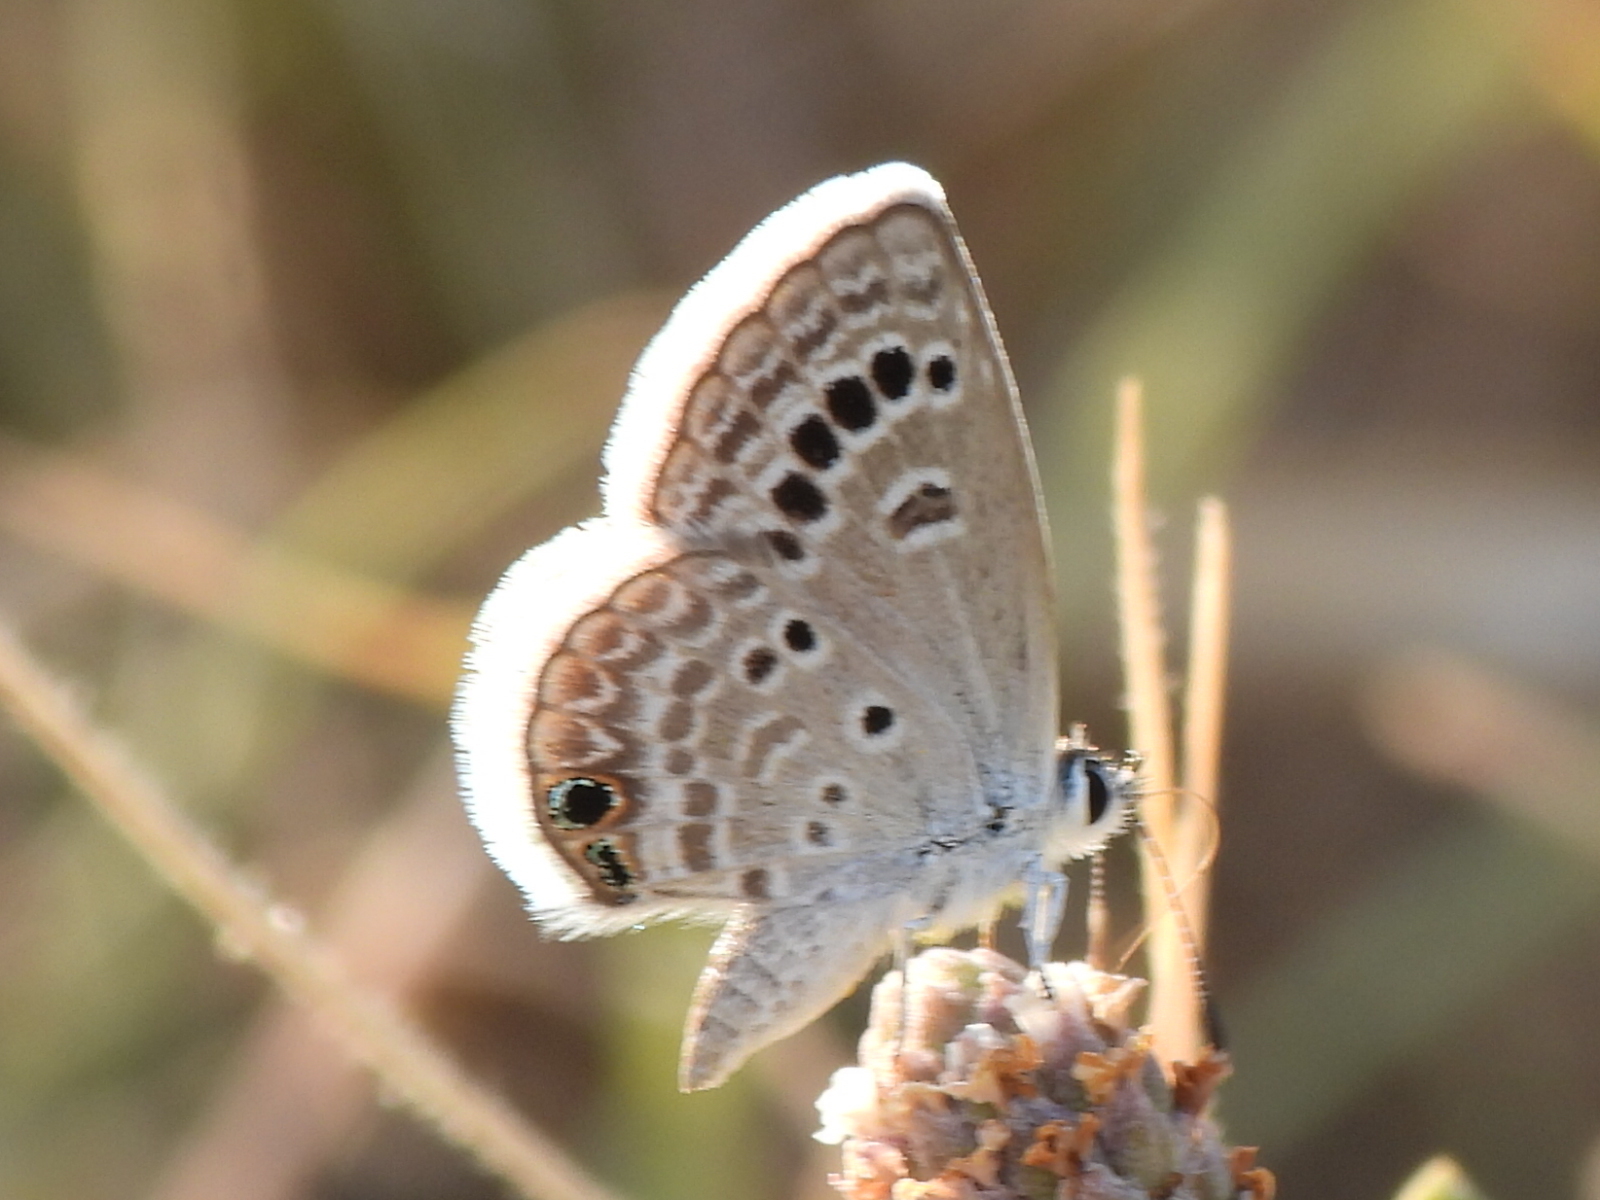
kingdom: Animalia
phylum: Arthropoda
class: Insecta
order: Lepidoptera
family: Lycaenidae
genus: Echinargus
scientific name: Echinargus isola
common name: Reakirt's blue
